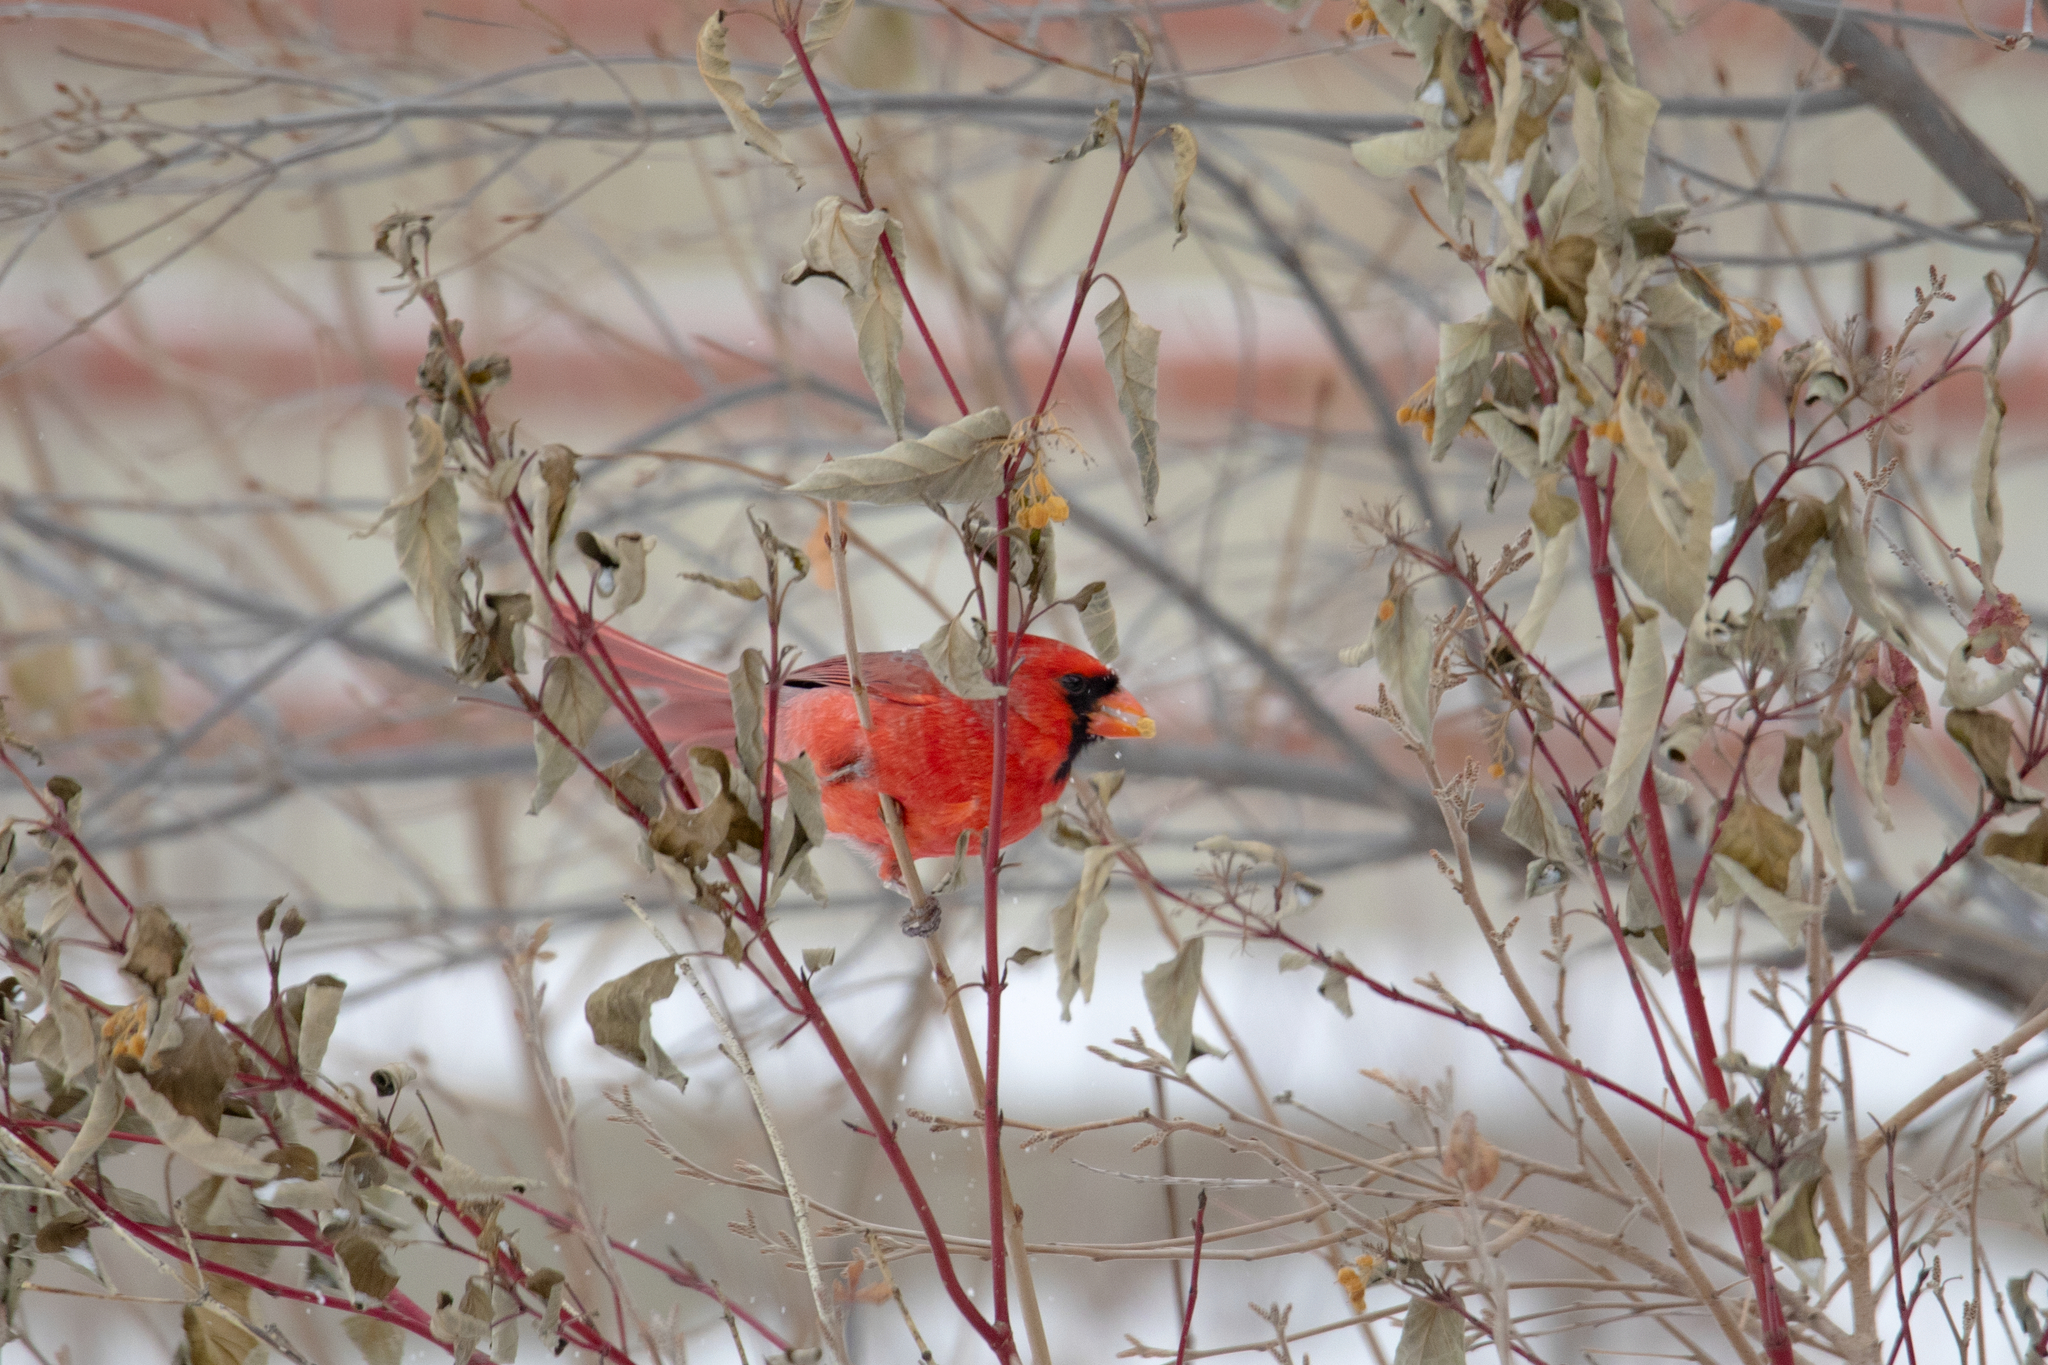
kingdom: Animalia
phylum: Chordata
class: Aves
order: Passeriformes
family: Cardinalidae
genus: Cardinalis
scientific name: Cardinalis cardinalis
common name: Northern cardinal
